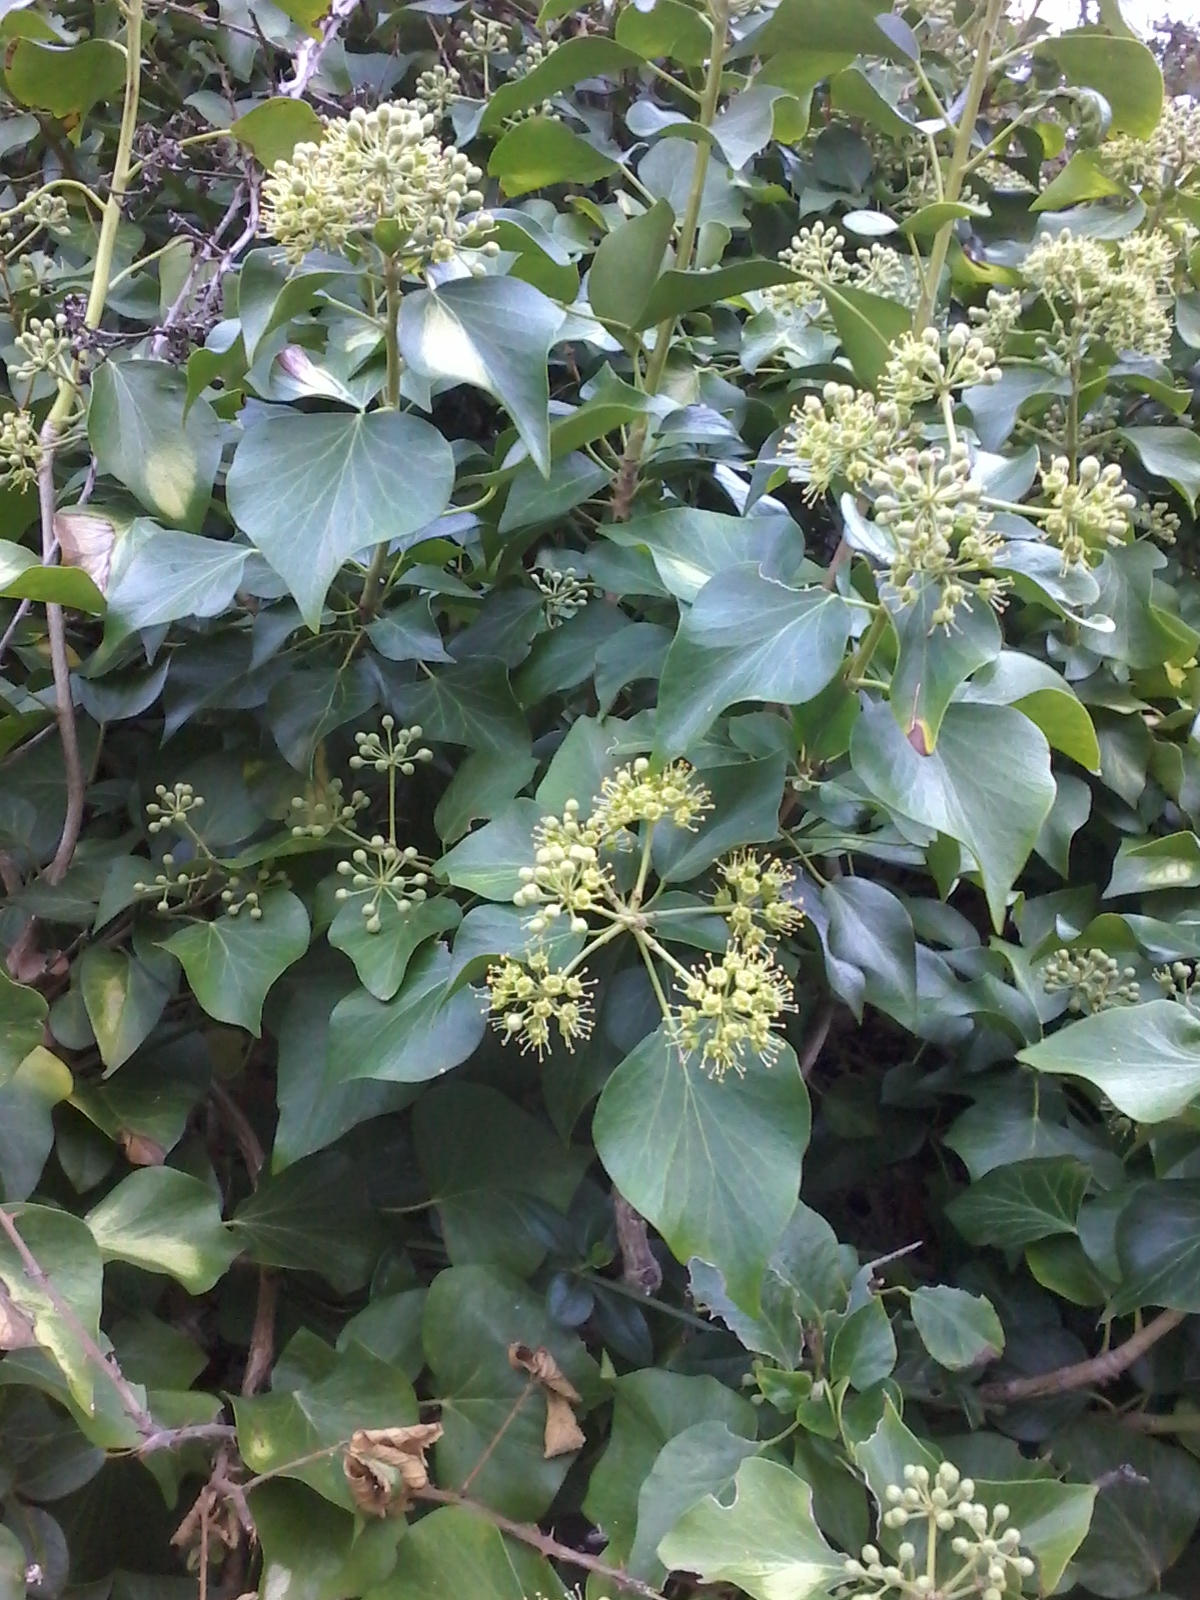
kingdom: Plantae
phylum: Tracheophyta
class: Magnoliopsida
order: Apiales
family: Araliaceae
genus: Hedera
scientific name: Hedera helix
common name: Ivy
